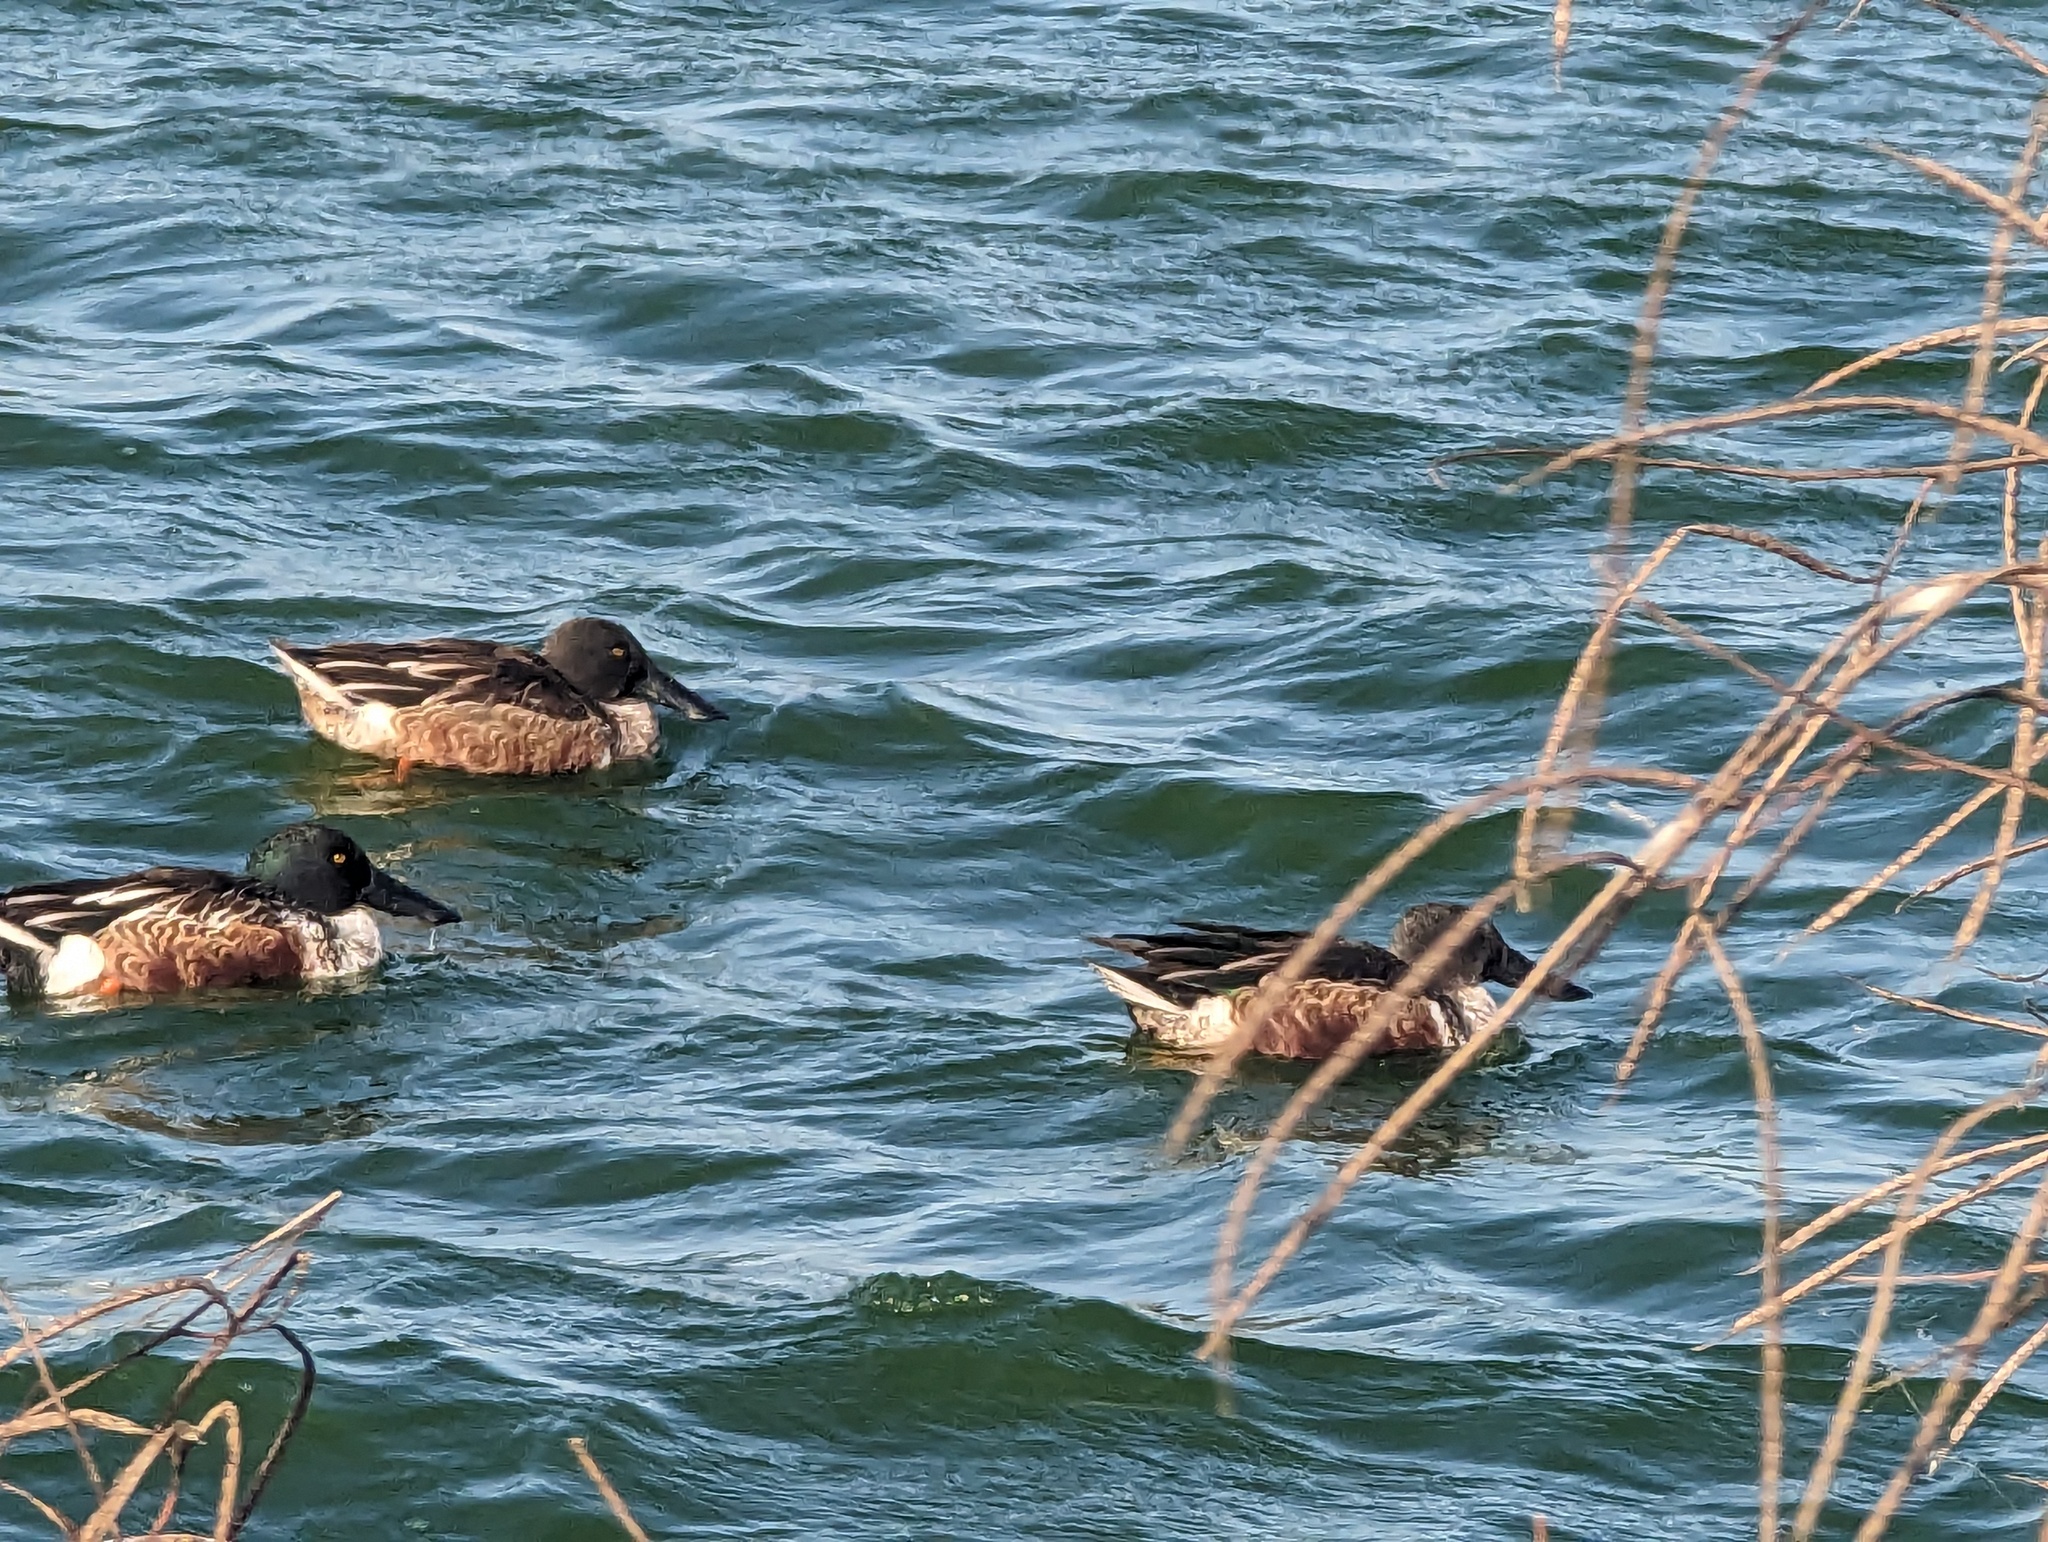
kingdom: Animalia
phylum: Chordata
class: Aves
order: Anseriformes
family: Anatidae
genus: Spatula
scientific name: Spatula clypeata
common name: Northern shoveler
